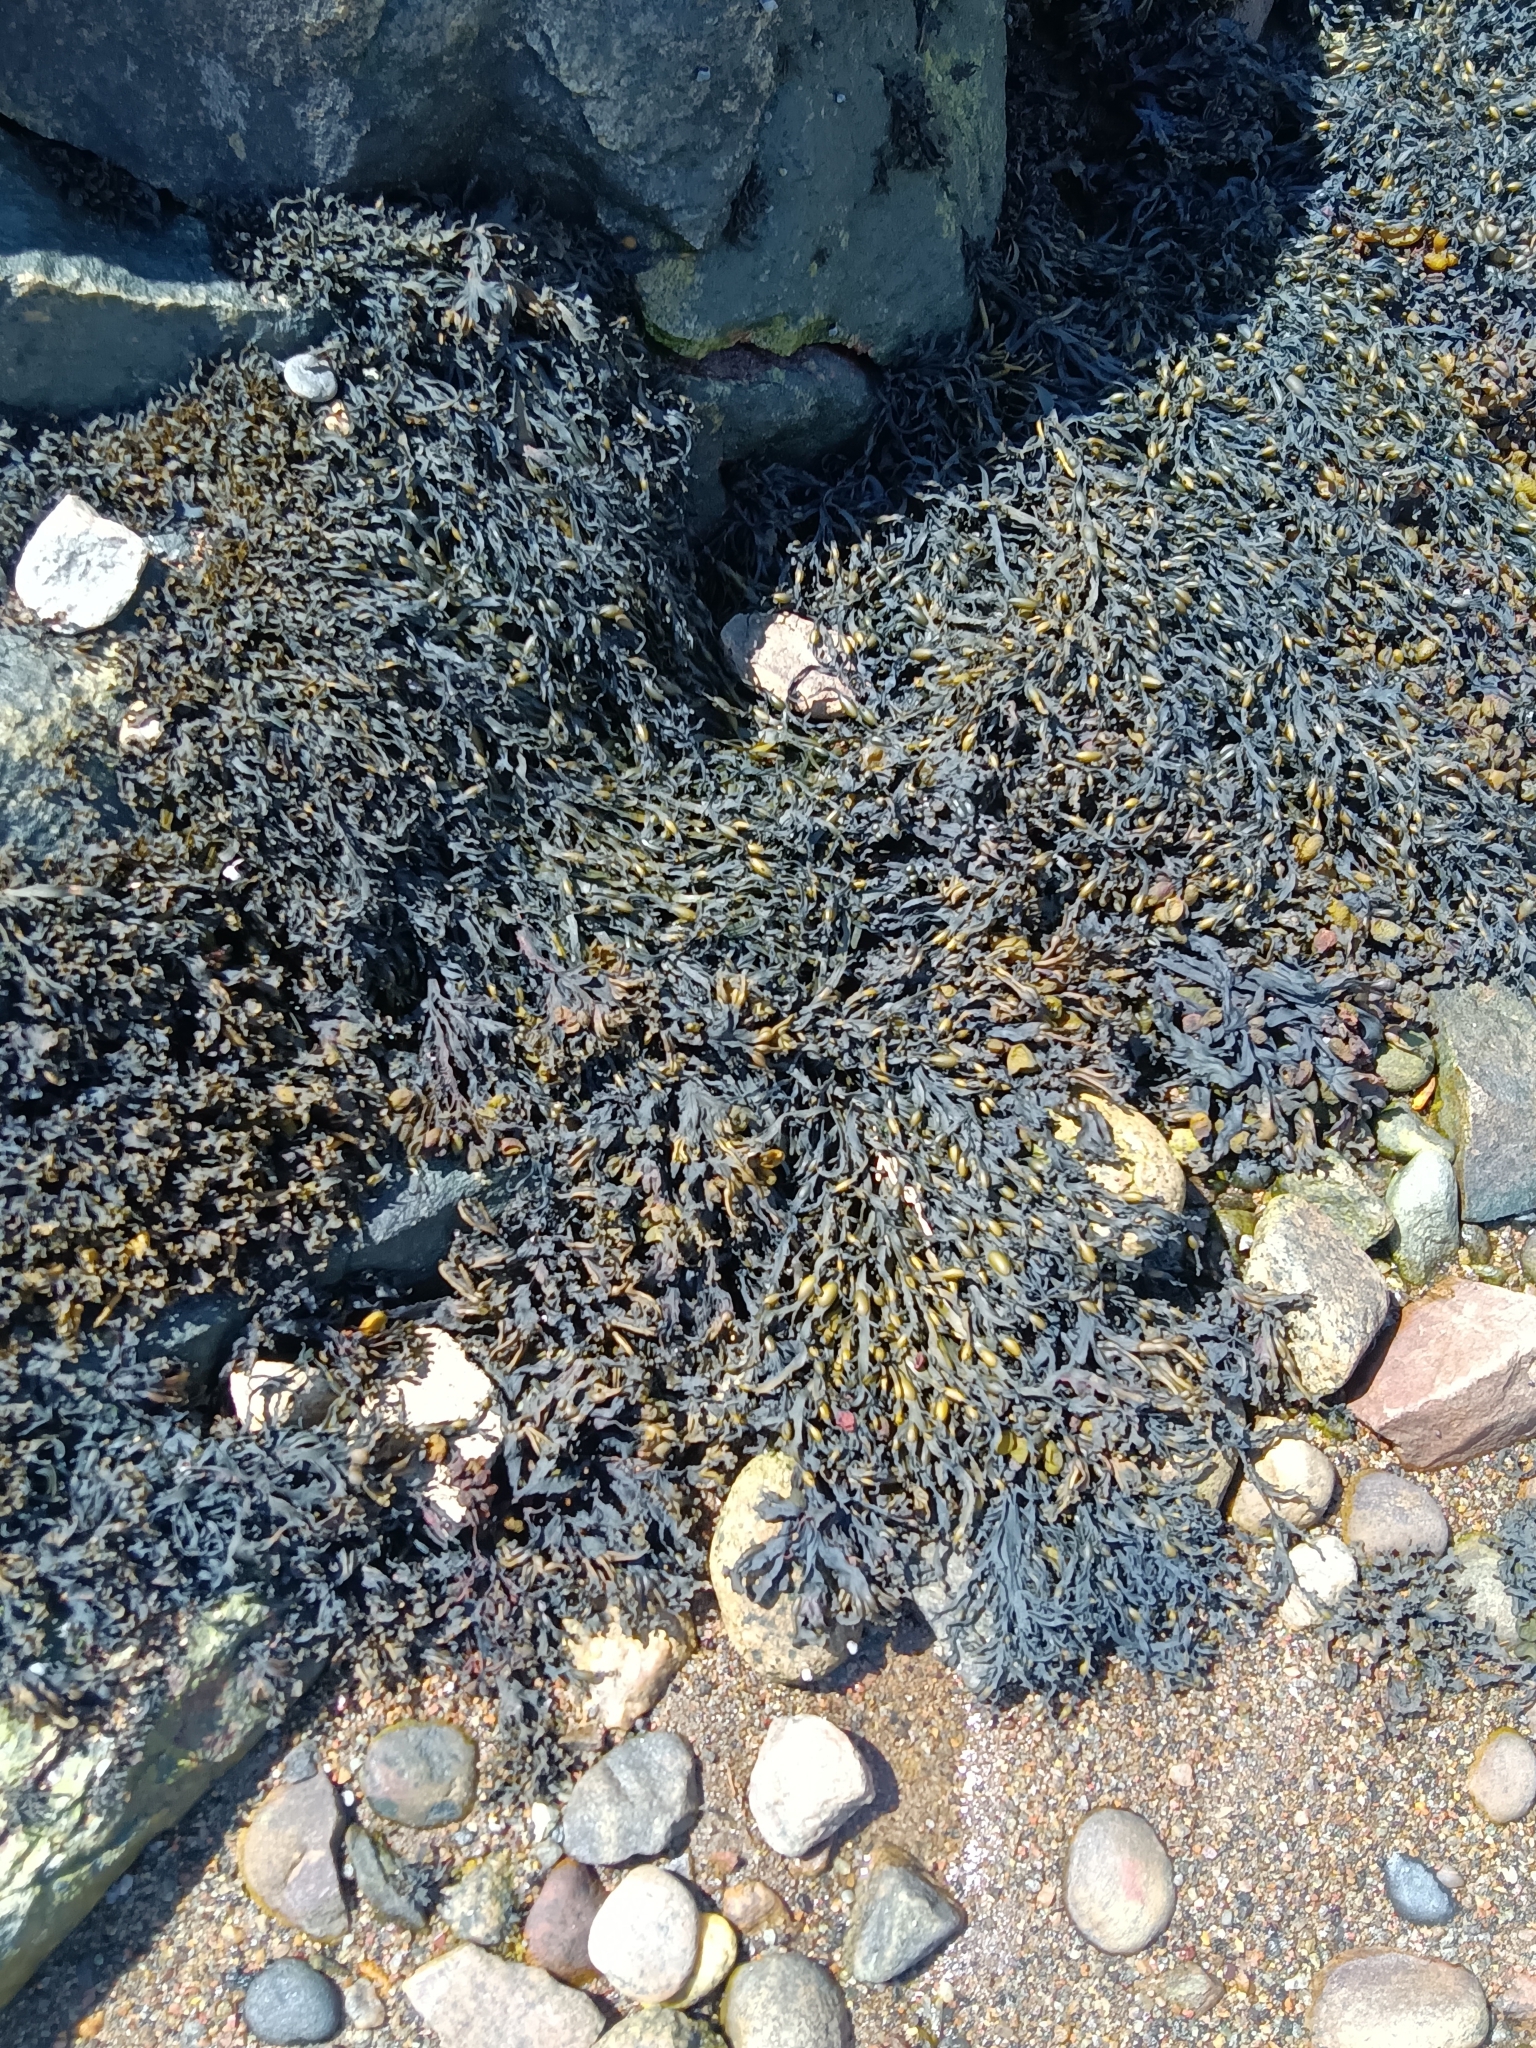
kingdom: Chromista
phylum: Ochrophyta
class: Phaeophyceae
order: Fucales
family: Fucaceae
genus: Ascophyllum
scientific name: Ascophyllum nodosum
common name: Knotted wrack
